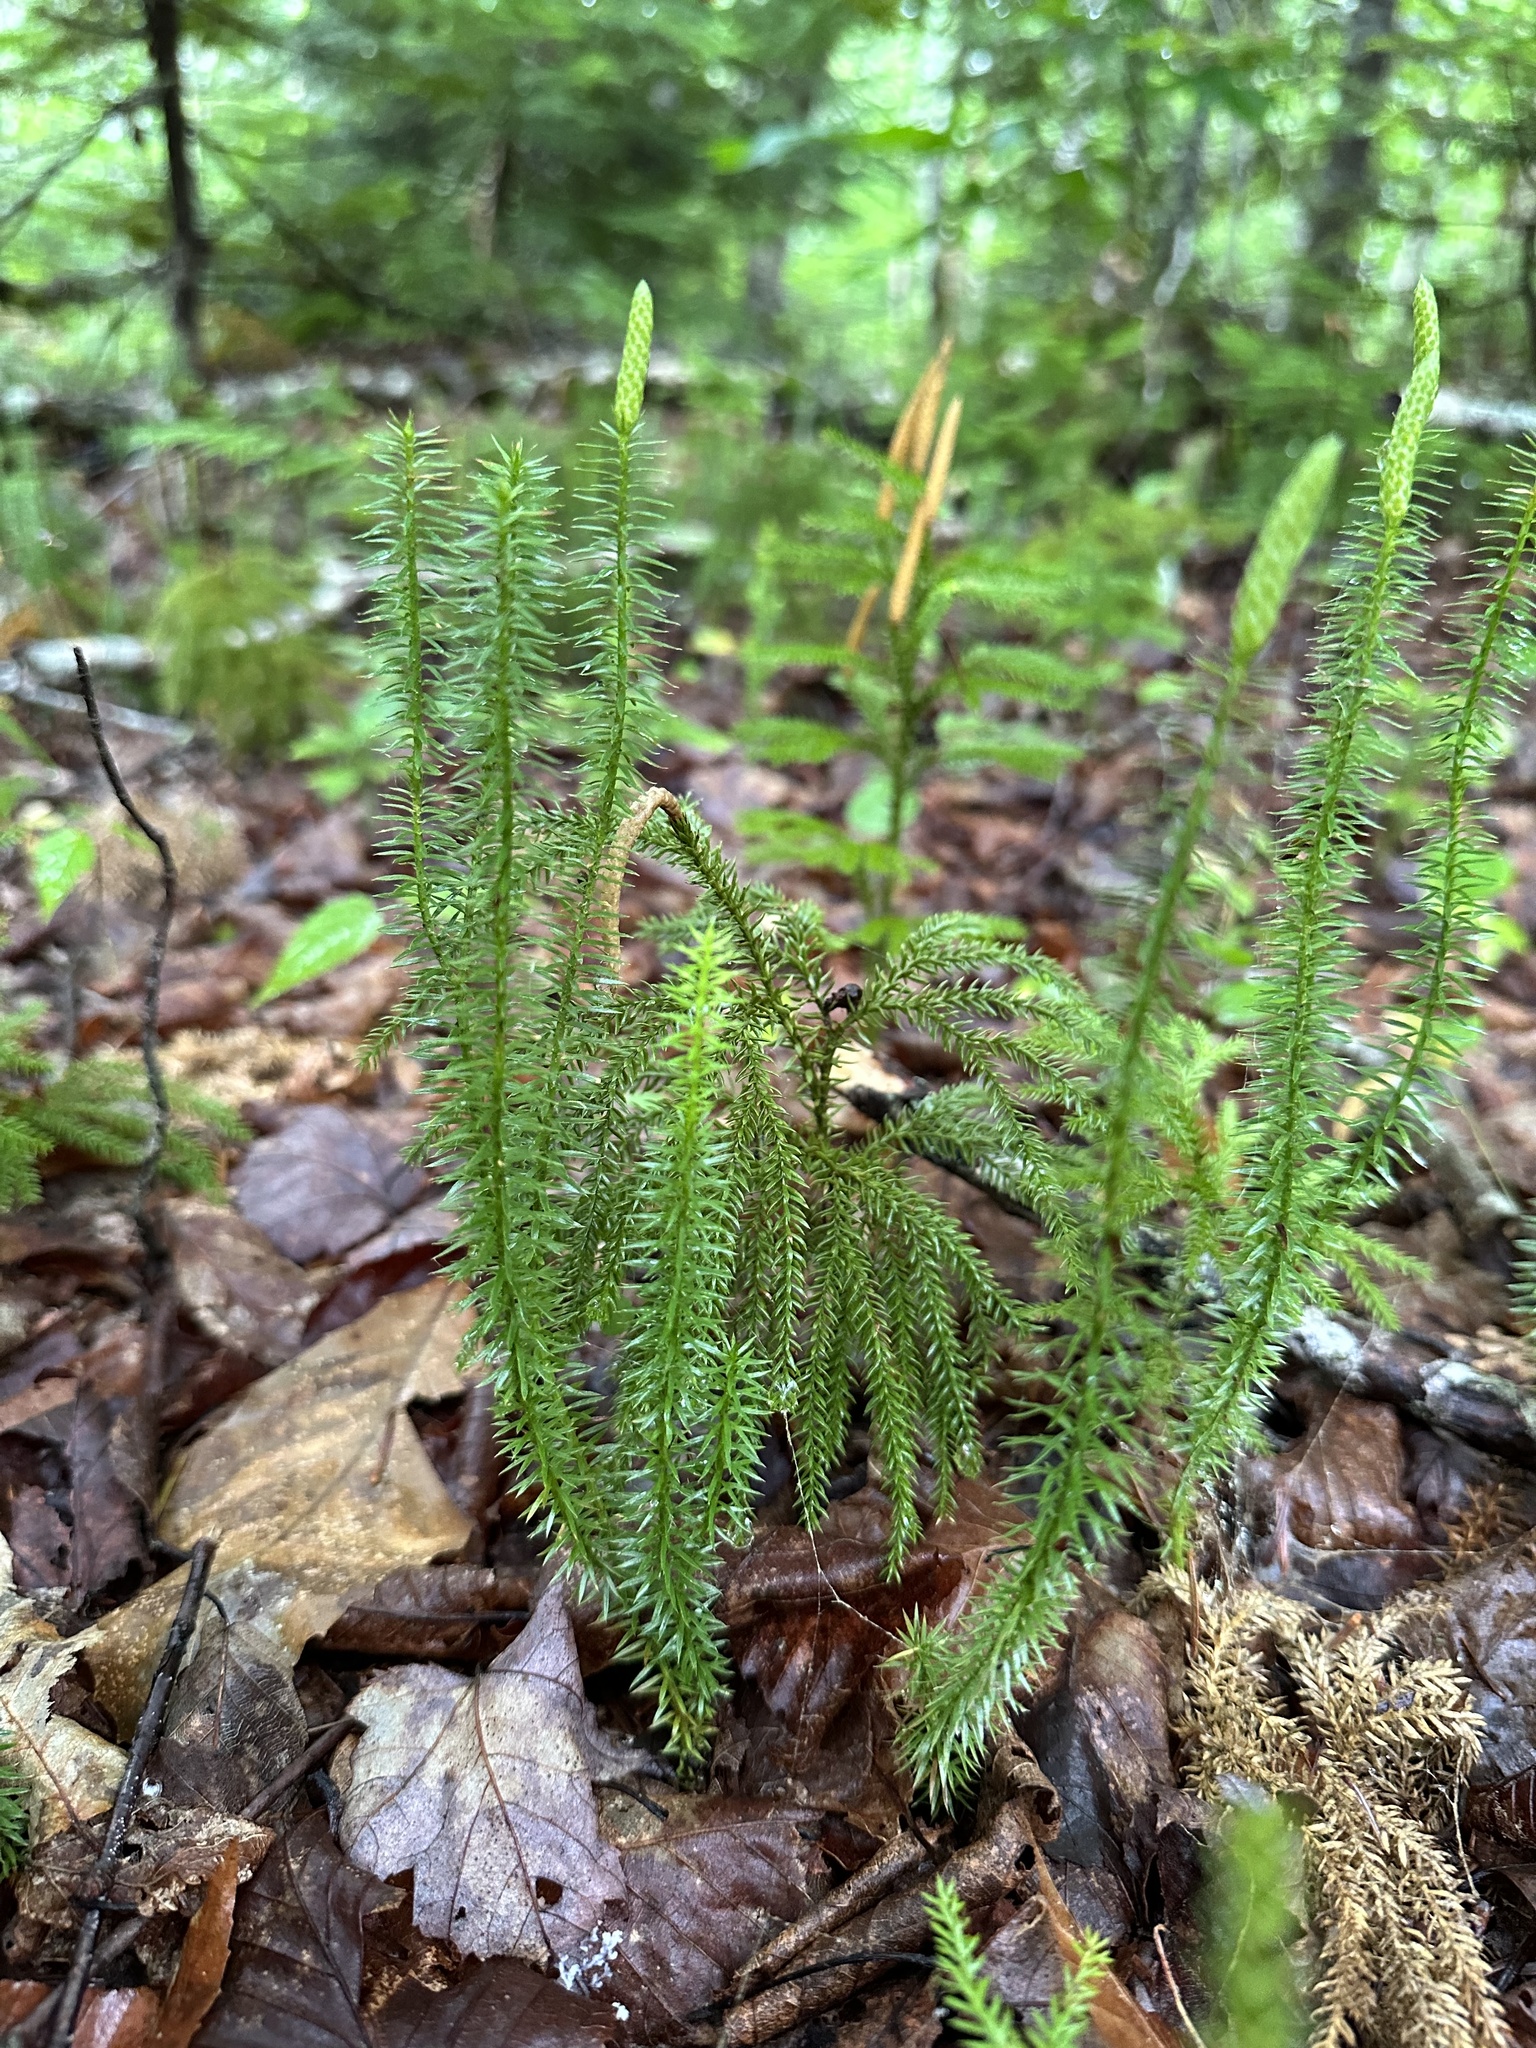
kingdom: Plantae
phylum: Tracheophyta
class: Lycopodiopsida
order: Lycopodiales
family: Lycopodiaceae
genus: Spinulum
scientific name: Spinulum annotinum
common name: Interrupted club-moss
